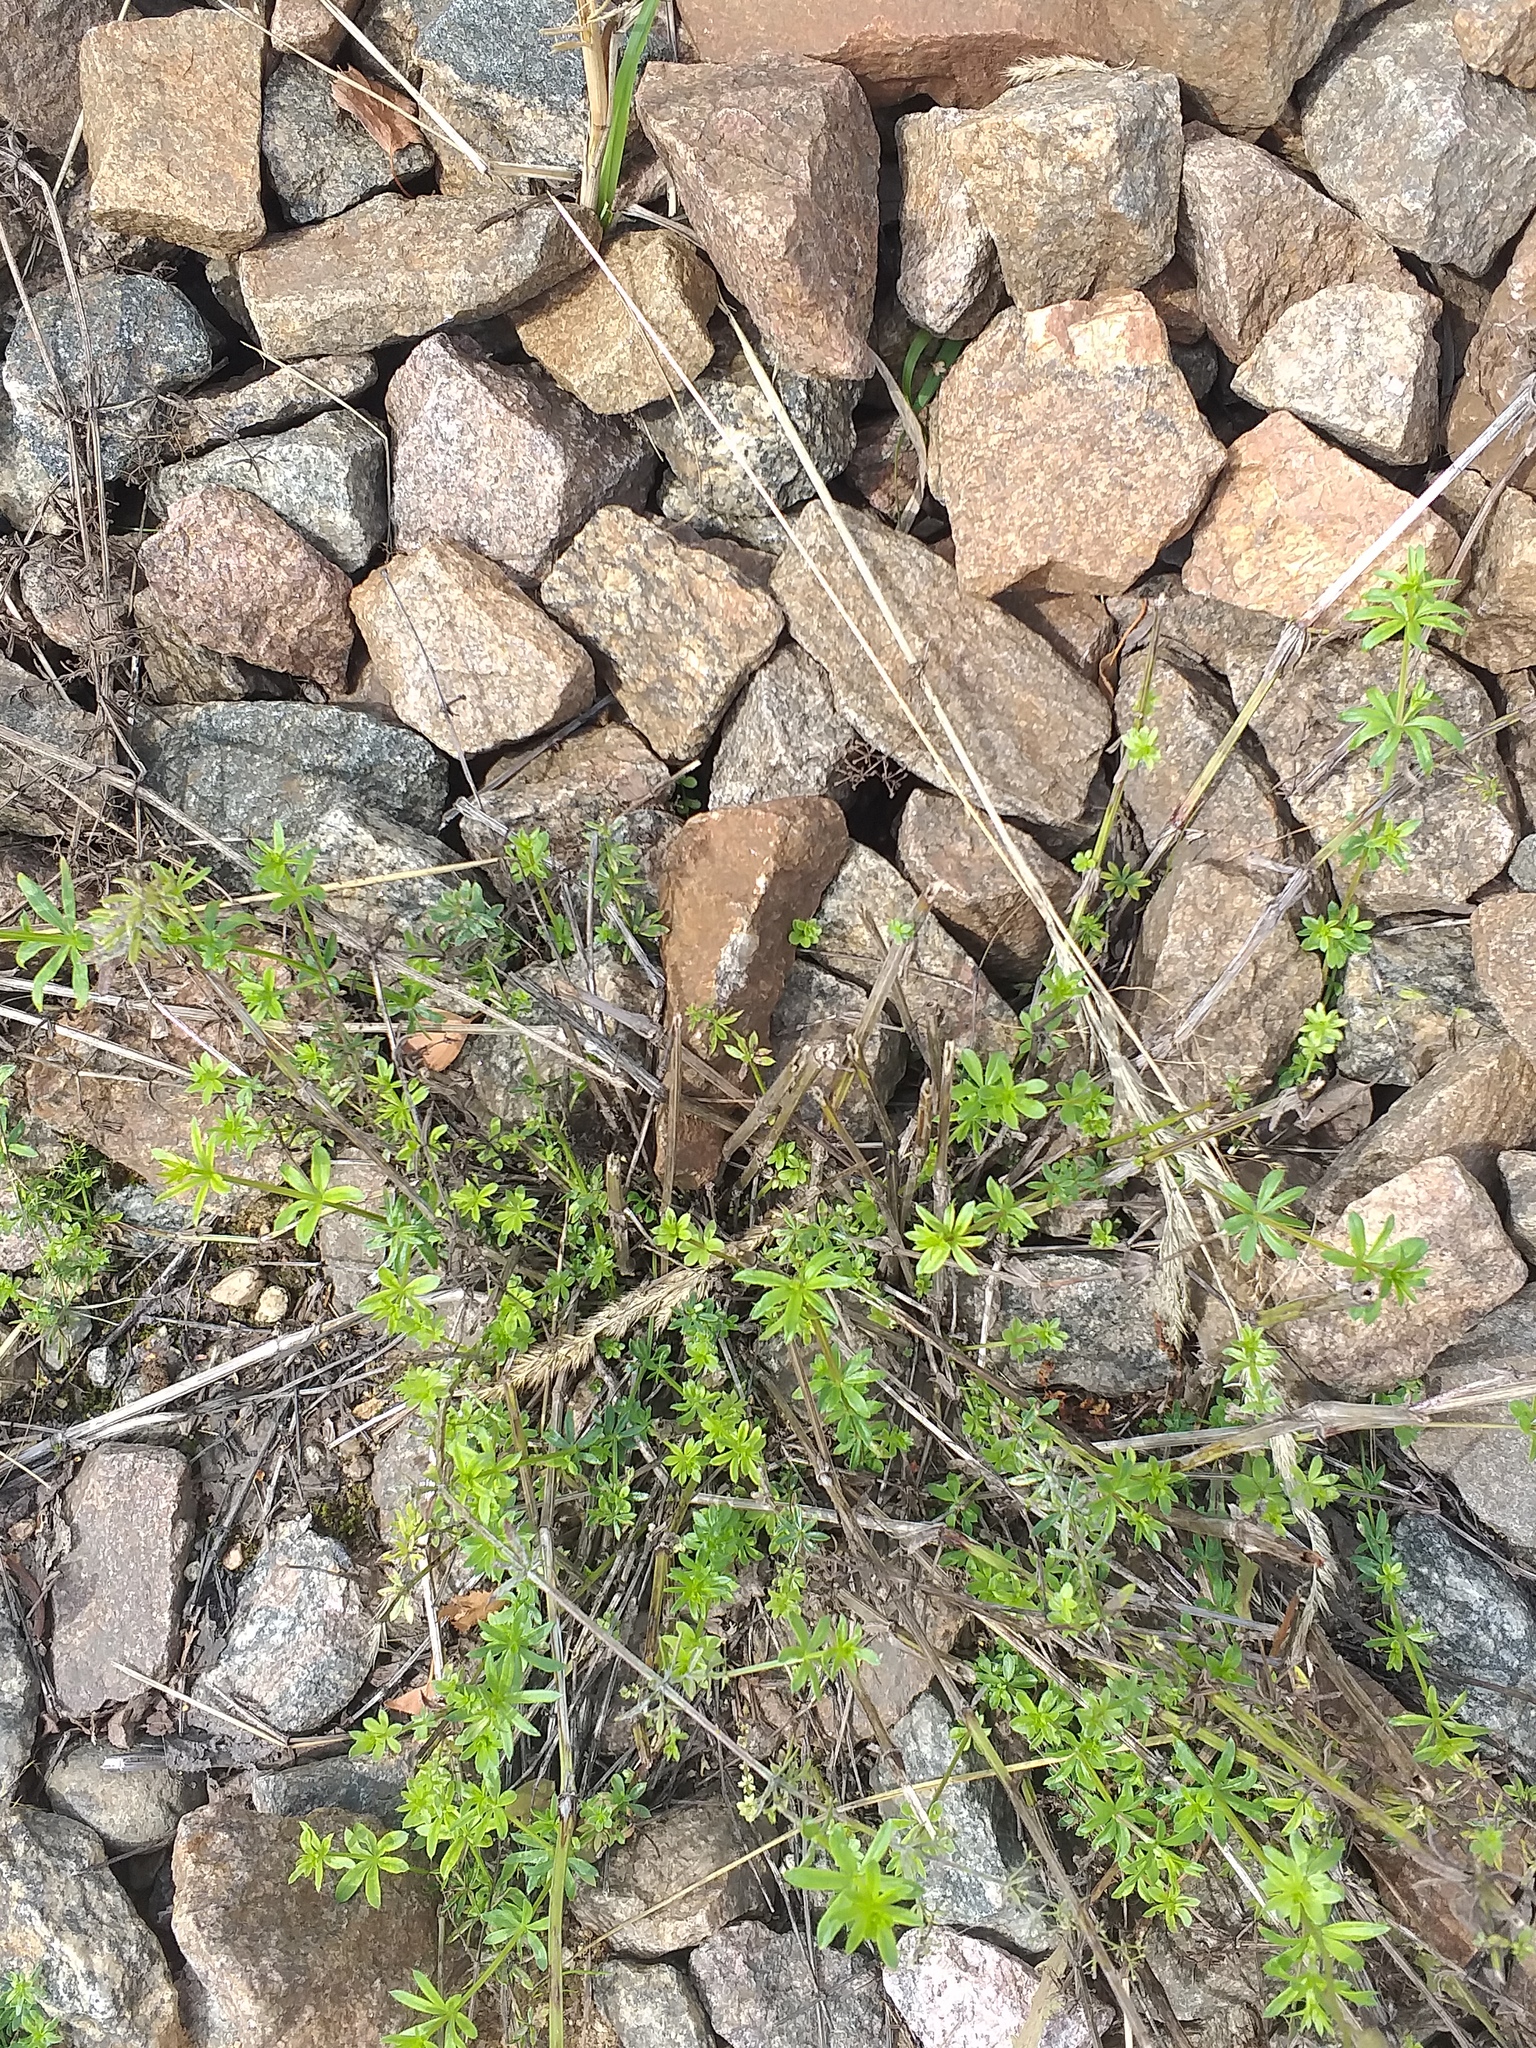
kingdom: Plantae
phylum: Tracheophyta
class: Magnoliopsida
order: Gentianales
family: Rubiaceae
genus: Galium
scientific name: Galium mollugo
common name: Hedge bedstraw
